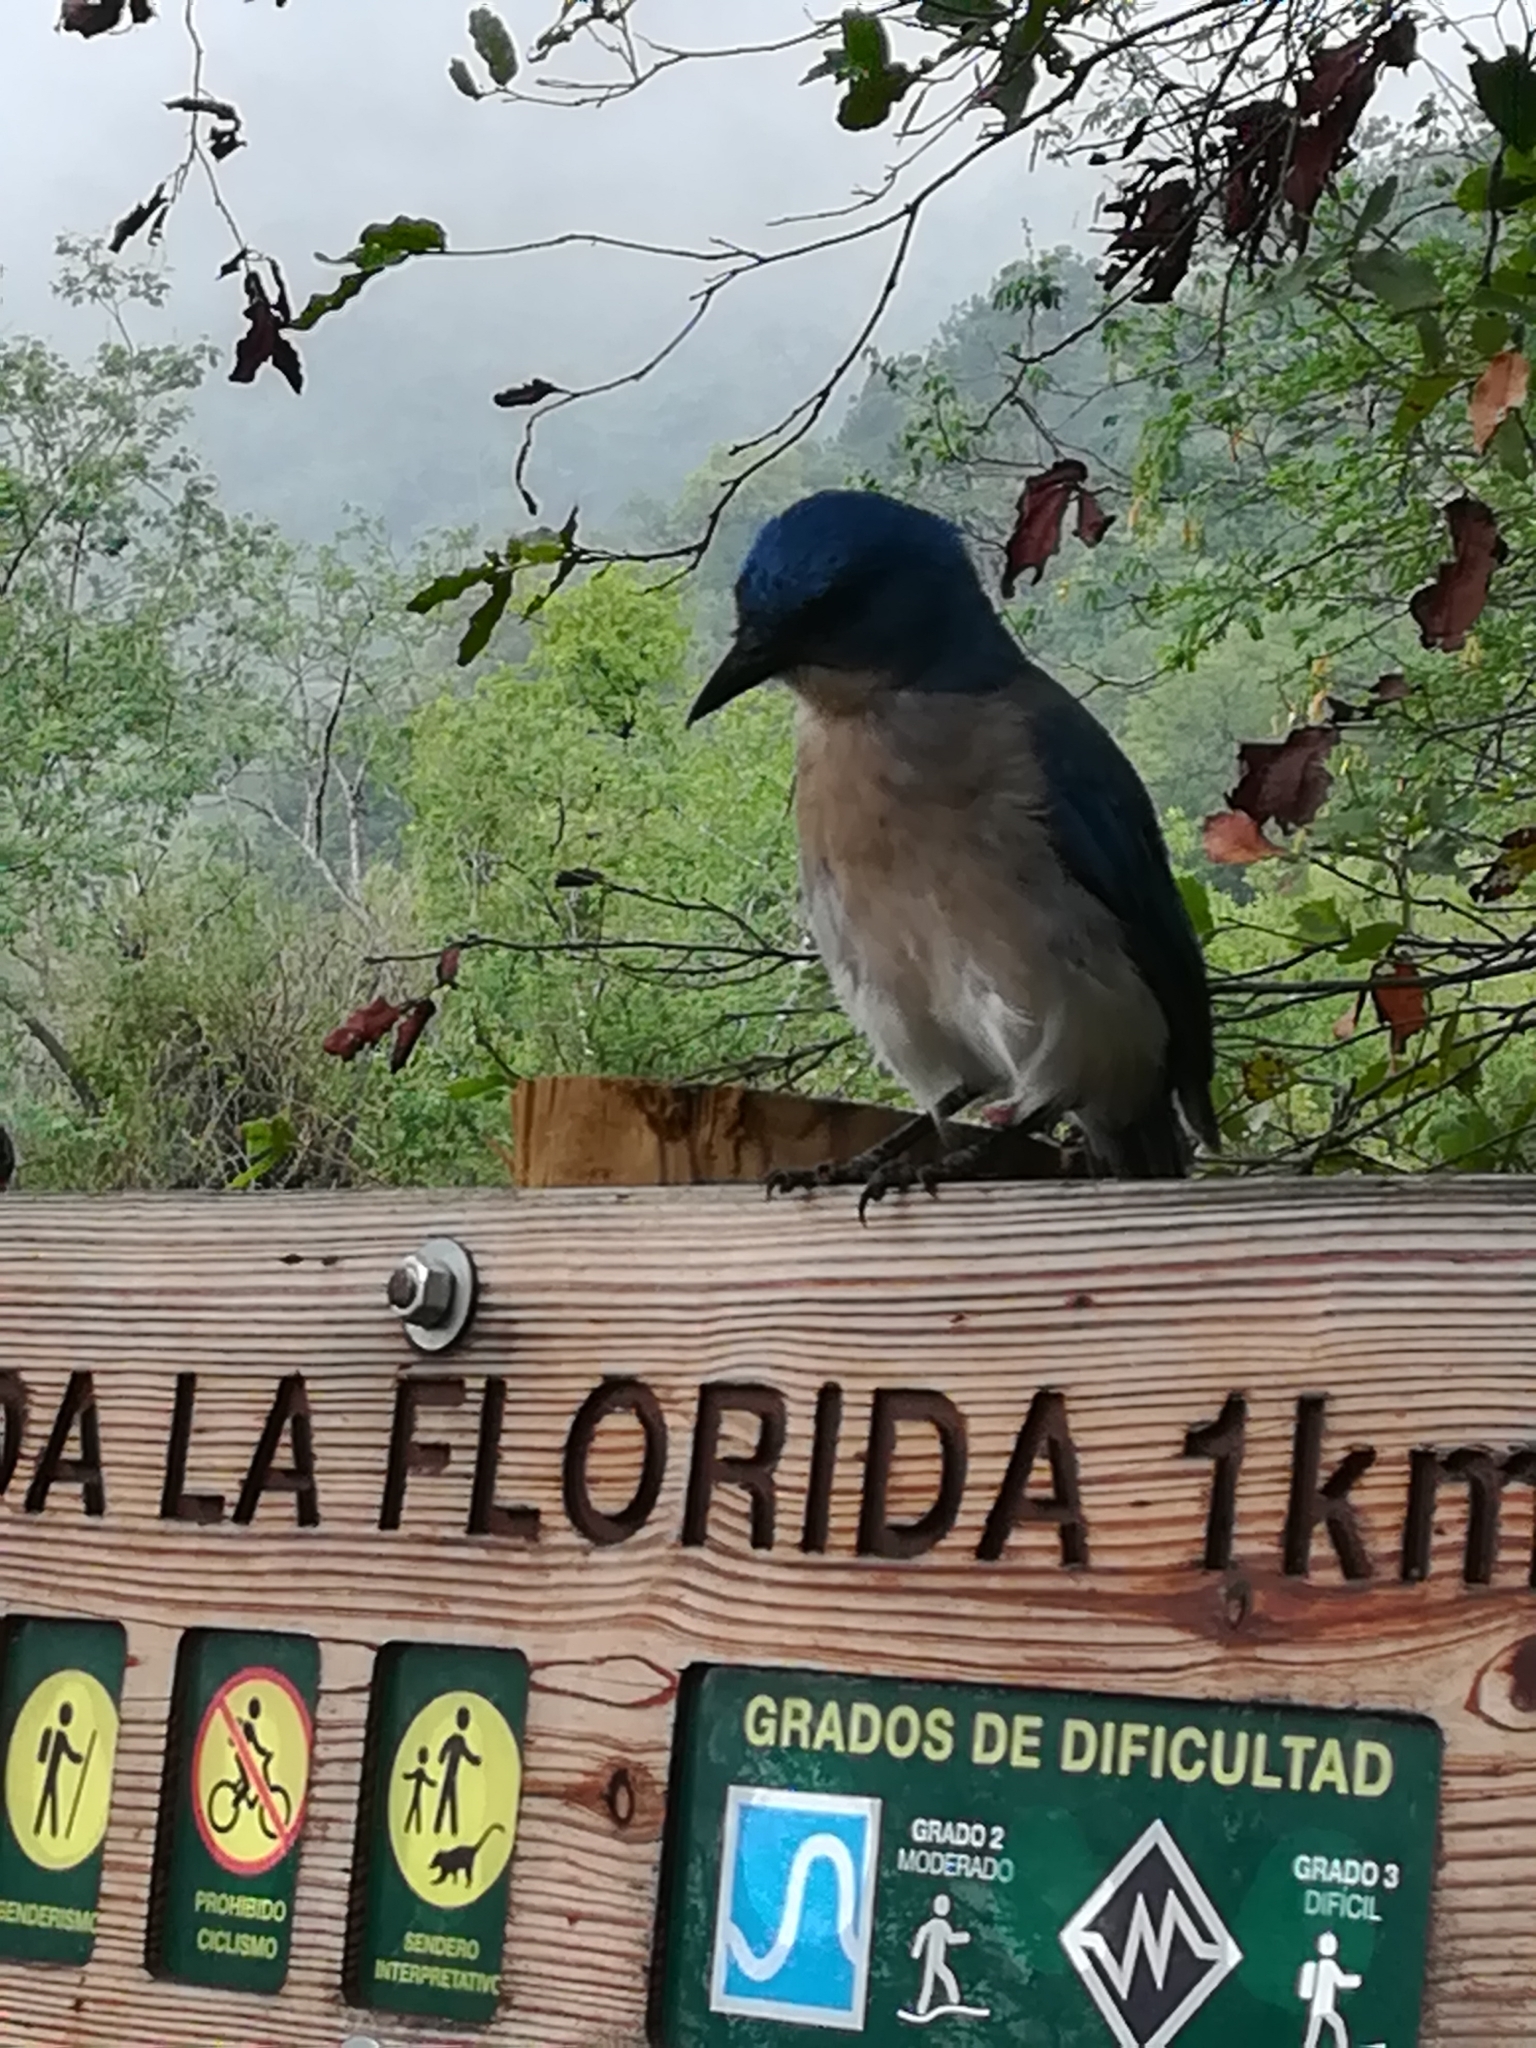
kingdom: Animalia
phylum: Chordata
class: Aves
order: Passeriformes
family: Corvidae
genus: Aphelocoma
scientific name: Aphelocoma wollweberi
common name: Mexican jay
